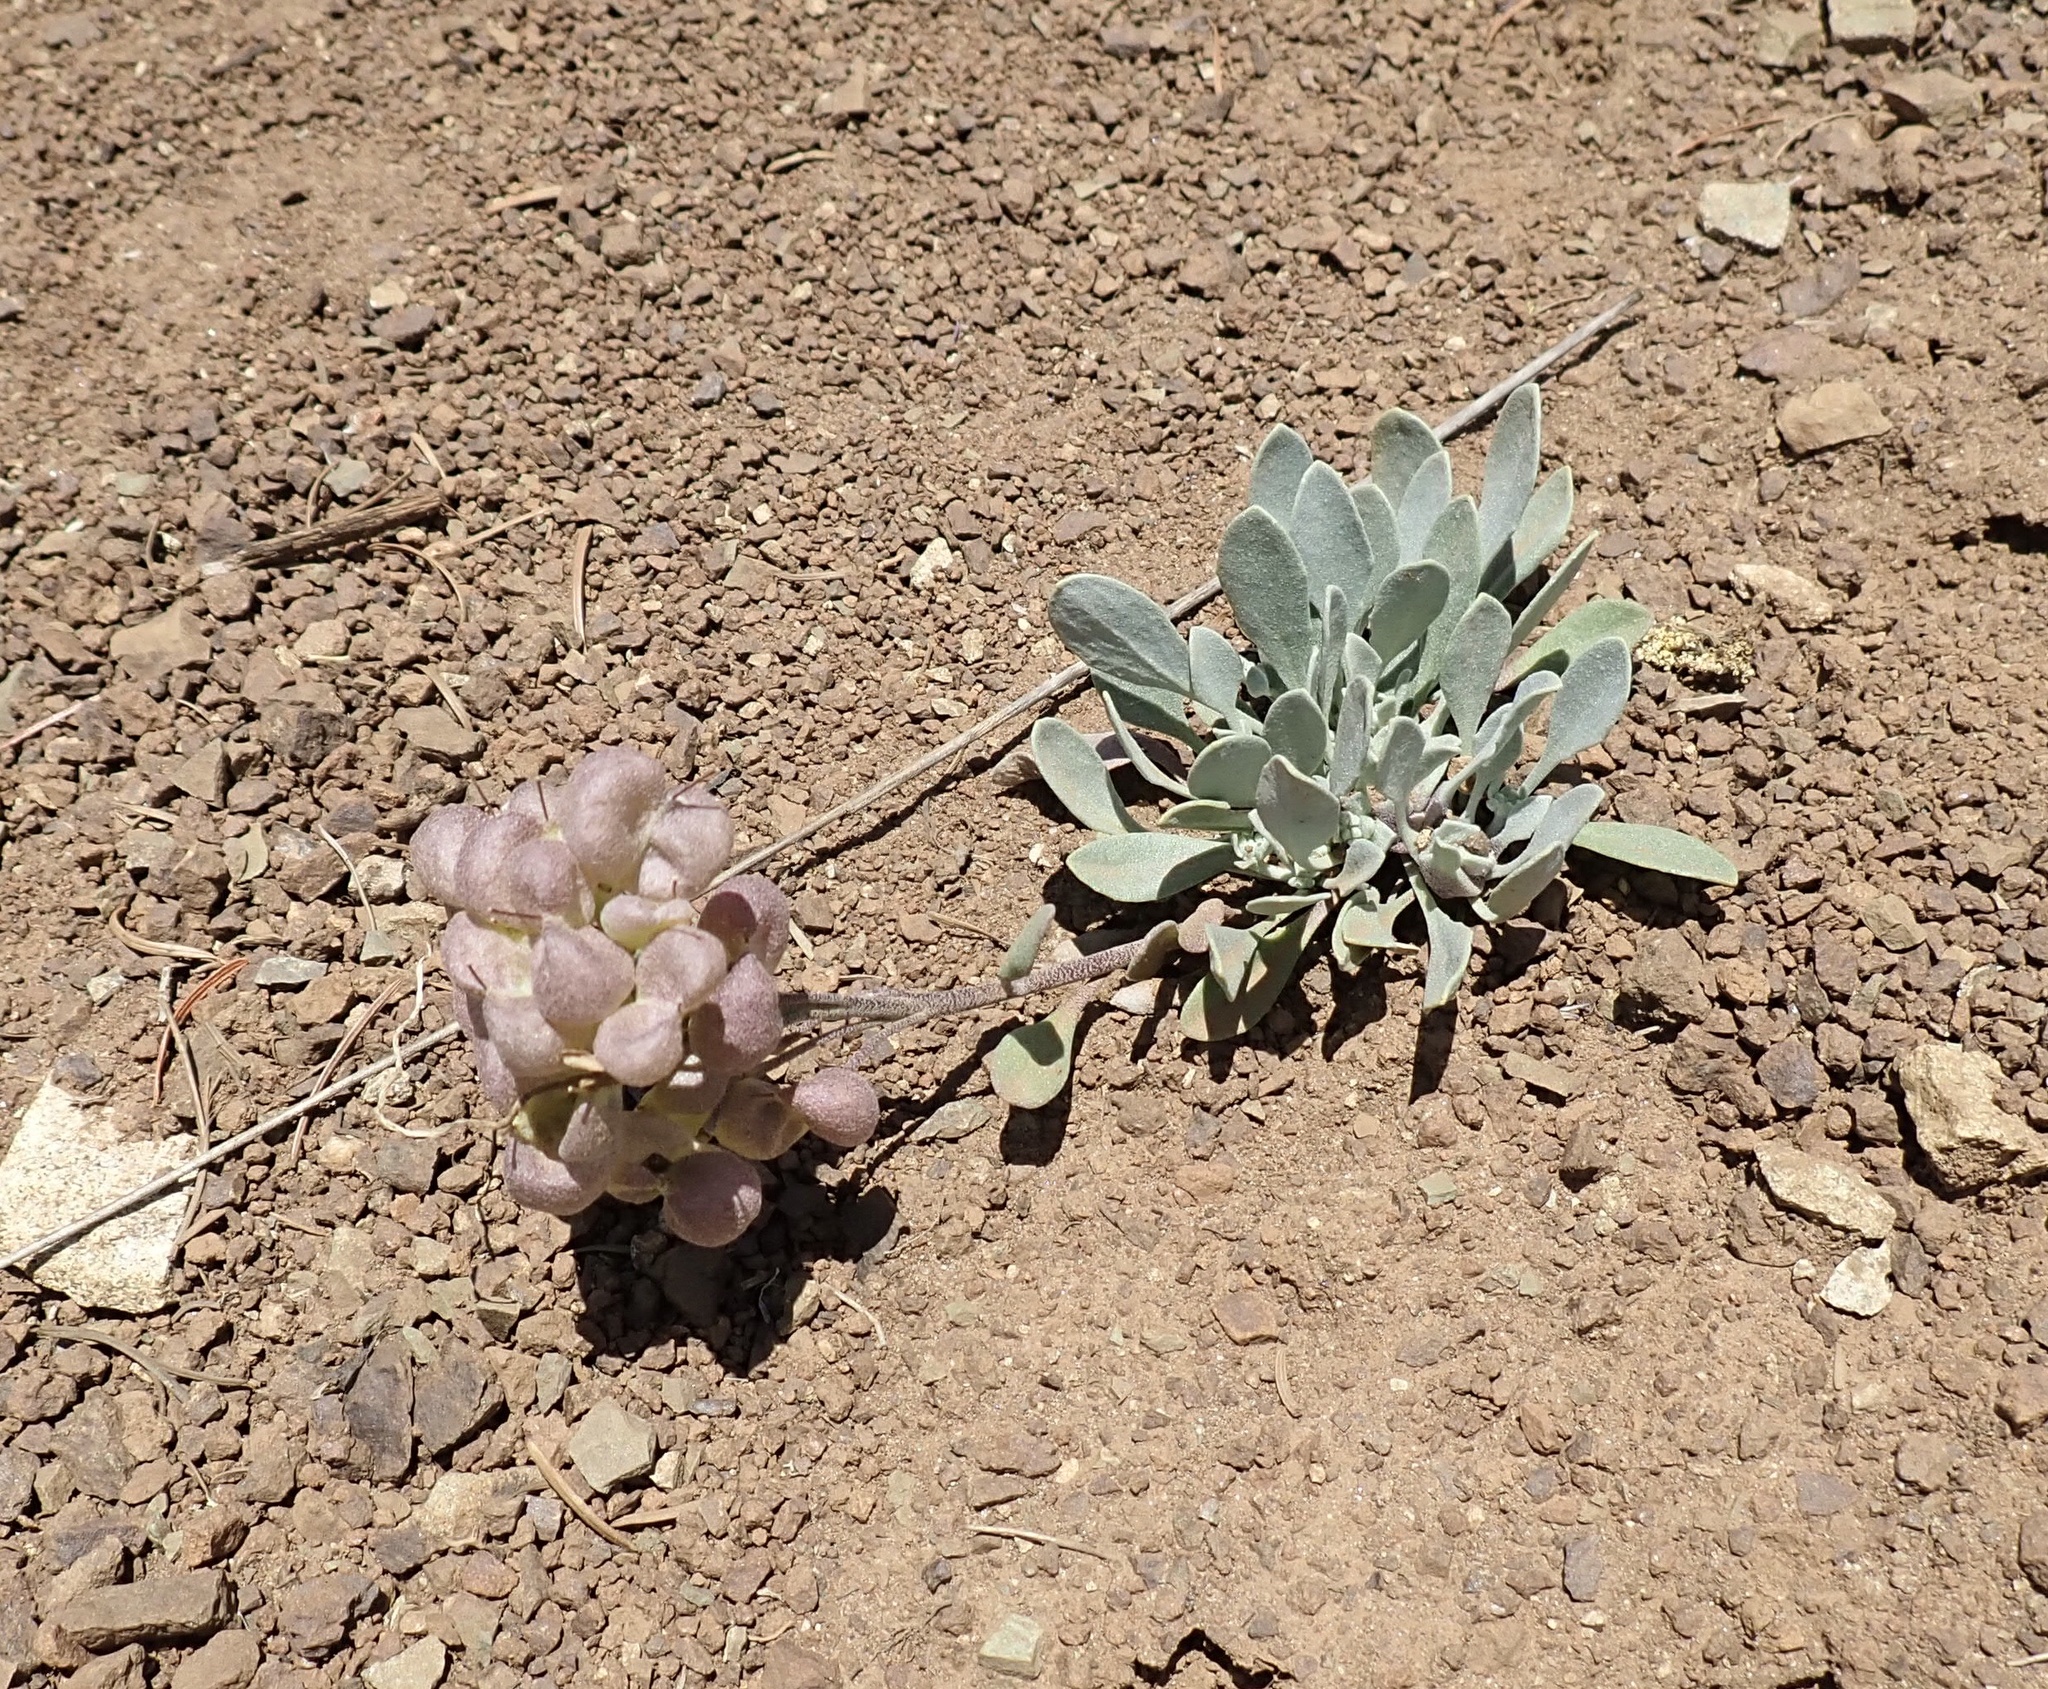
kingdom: Plantae
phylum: Tracheophyta
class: Magnoliopsida
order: Brassicales
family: Brassicaceae
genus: Physaria
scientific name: Physaria alpestris
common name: Washington twinpod
